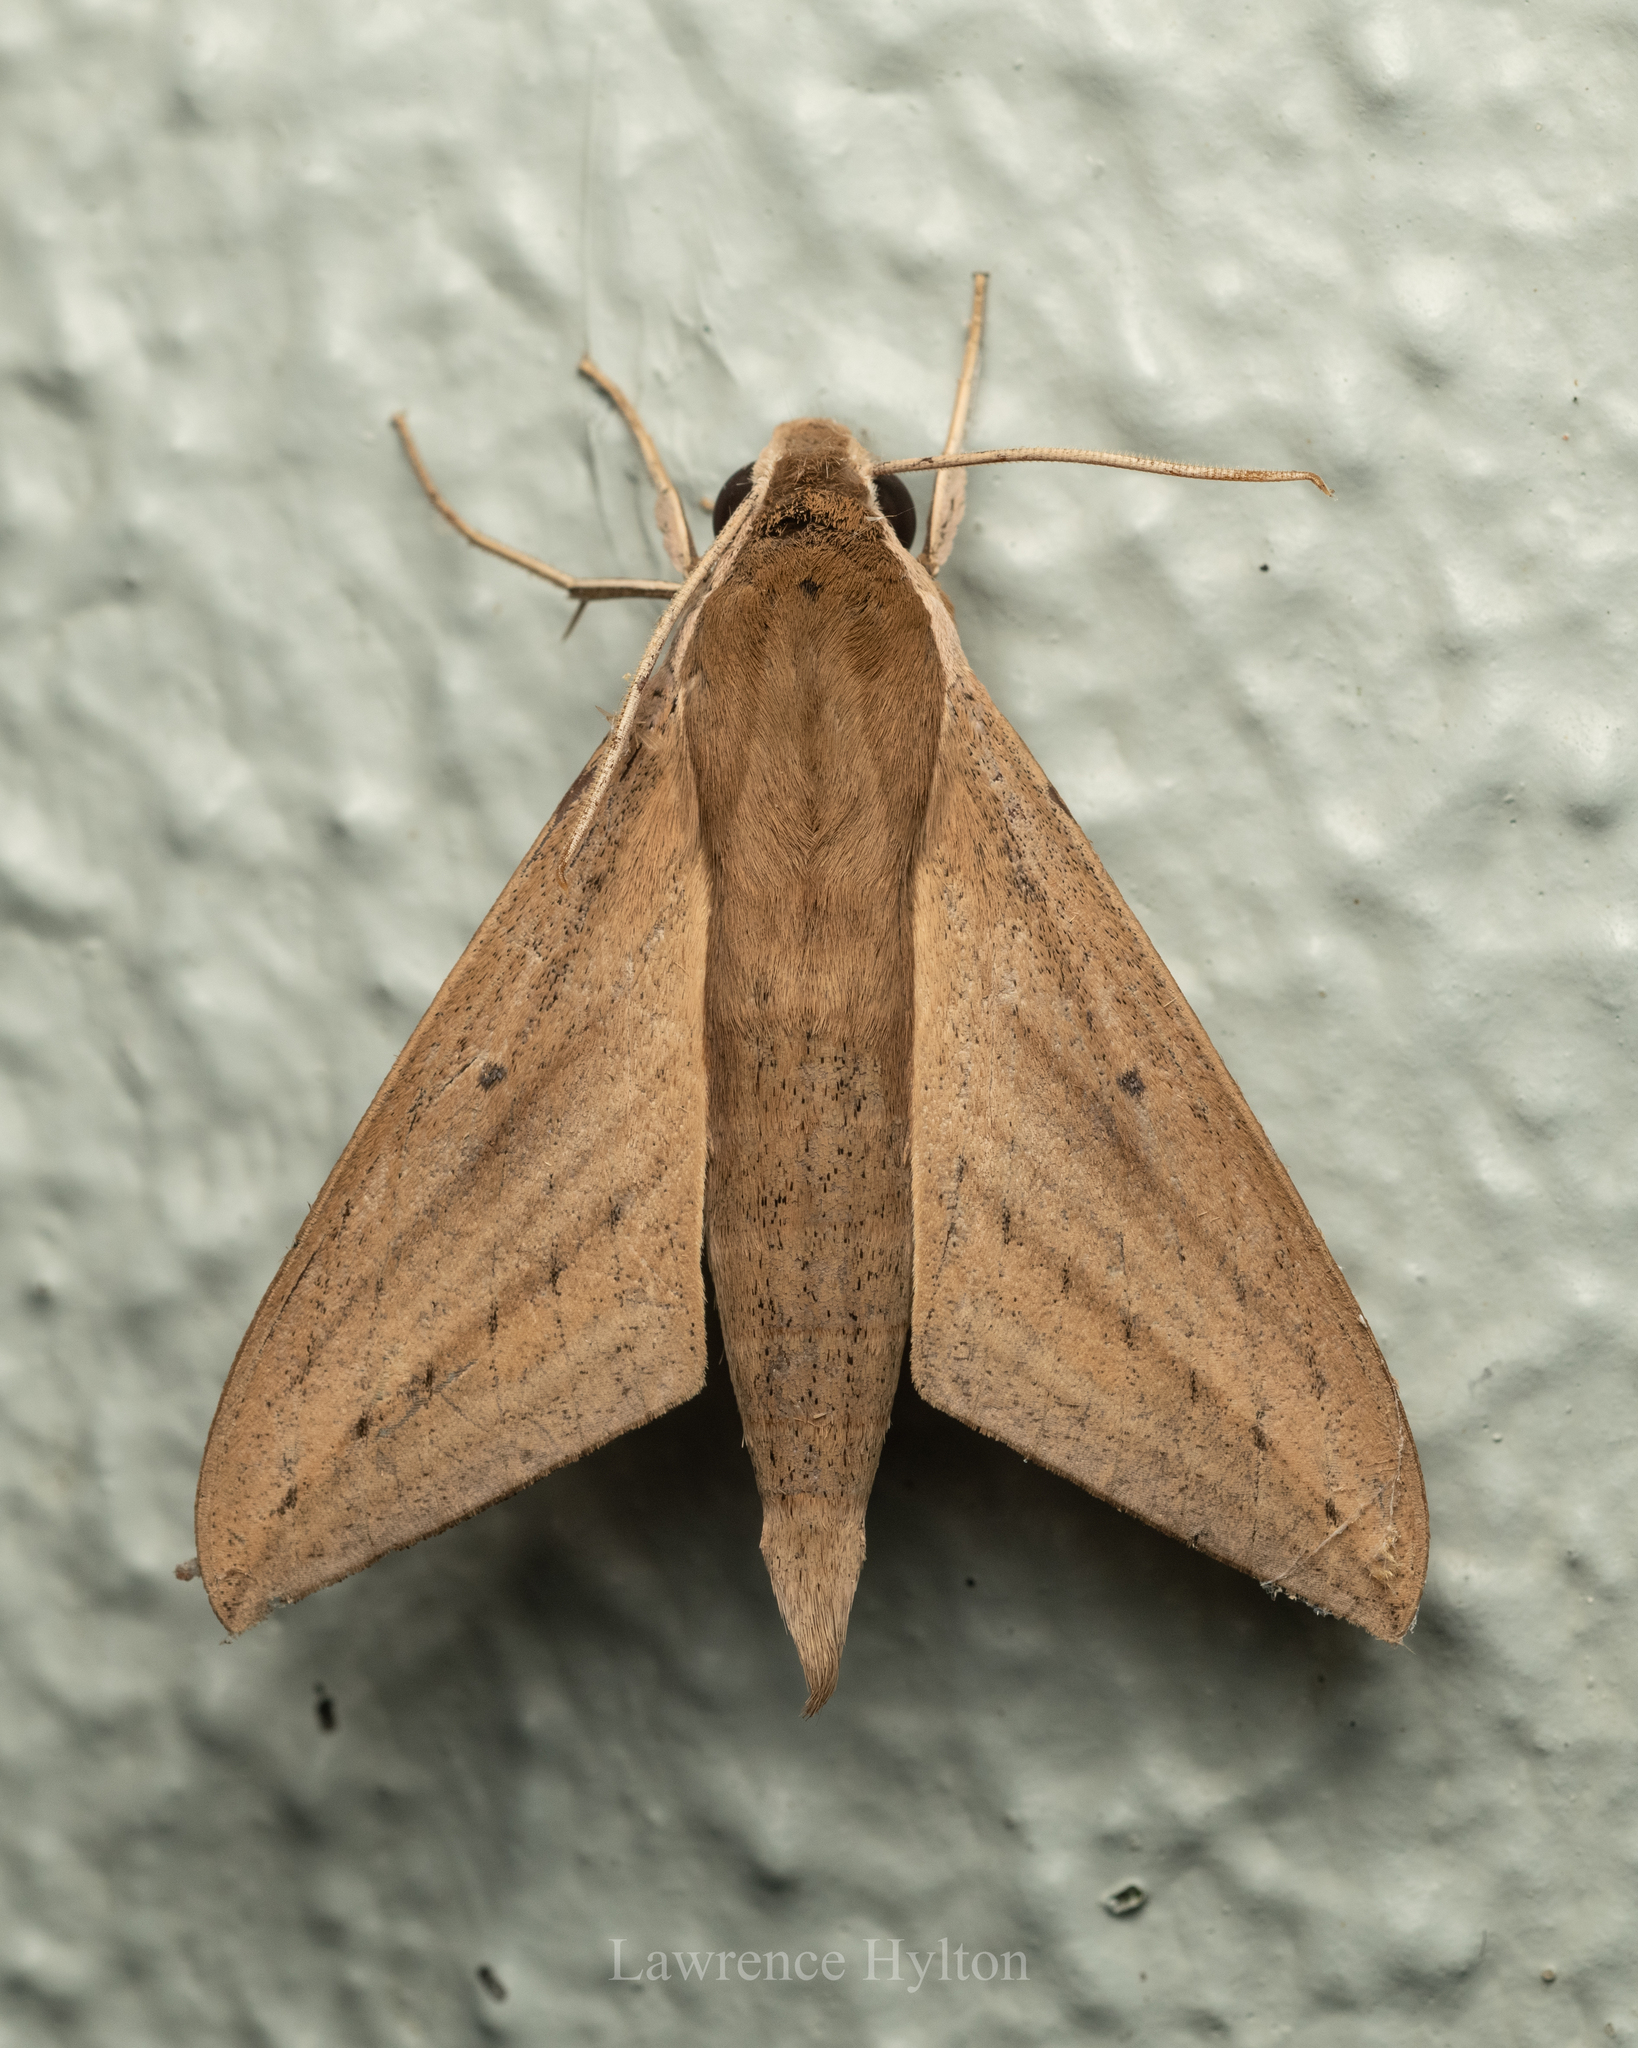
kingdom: Animalia
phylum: Arthropoda
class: Insecta
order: Lepidoptera
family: Sphingidae
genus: Theretra
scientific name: Theretra rhesus
